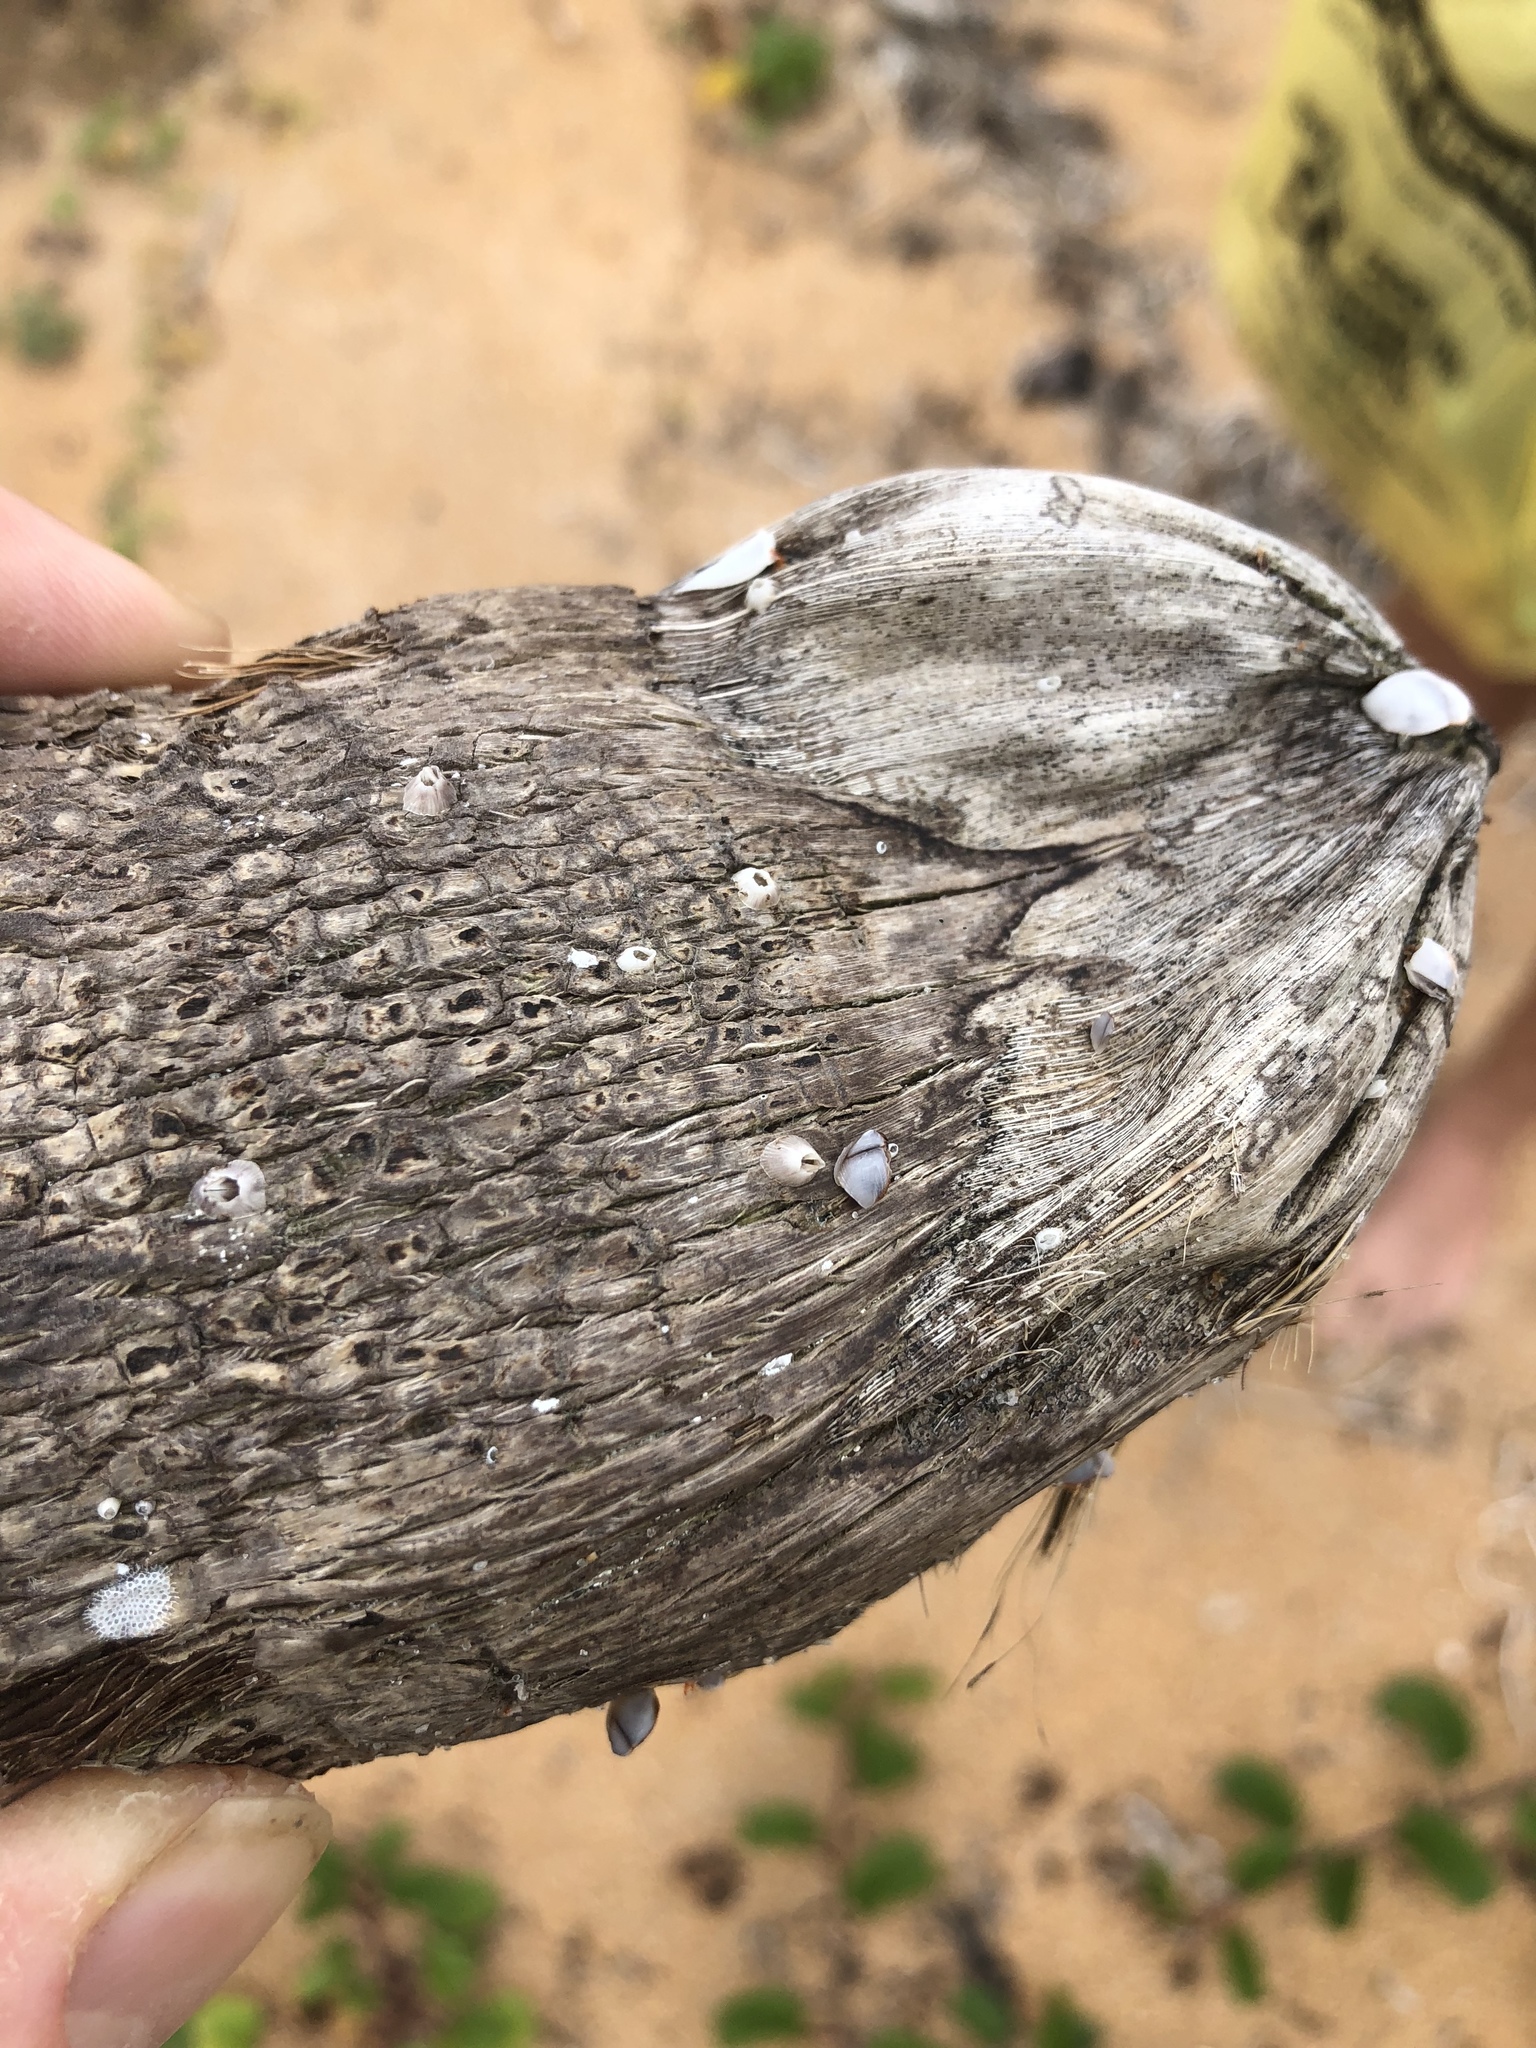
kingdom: Animalia
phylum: Arthropoda
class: Maxillopoda
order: Sessilia
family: Balanidae
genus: Amphibalanus
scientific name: Amphibalanus venustus
